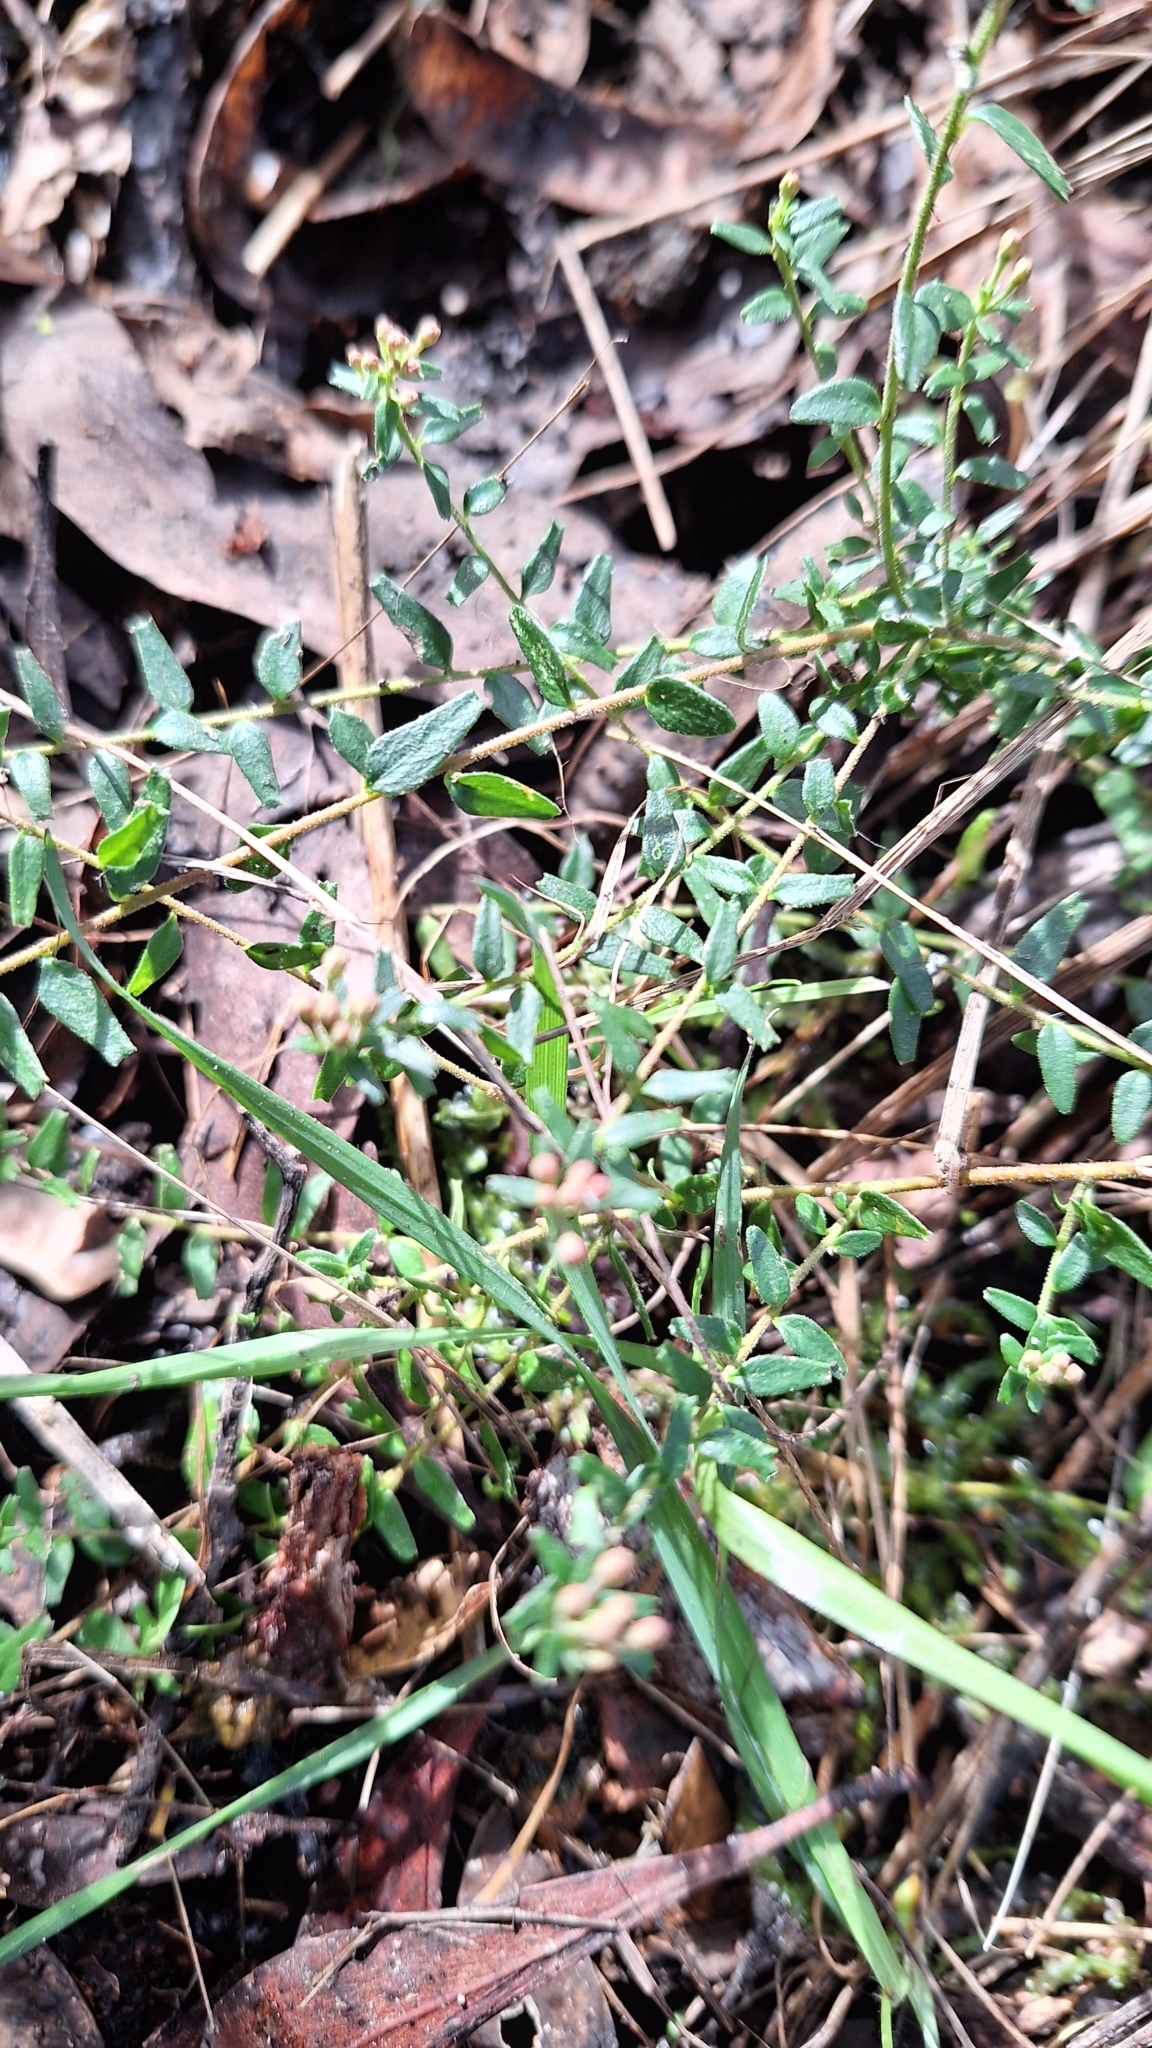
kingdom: Plantae
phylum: Tracheophyta
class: Magnoliopsida
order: Sapindales
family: Rutaceae
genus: Leionema
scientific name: Leionema hillebrandii
